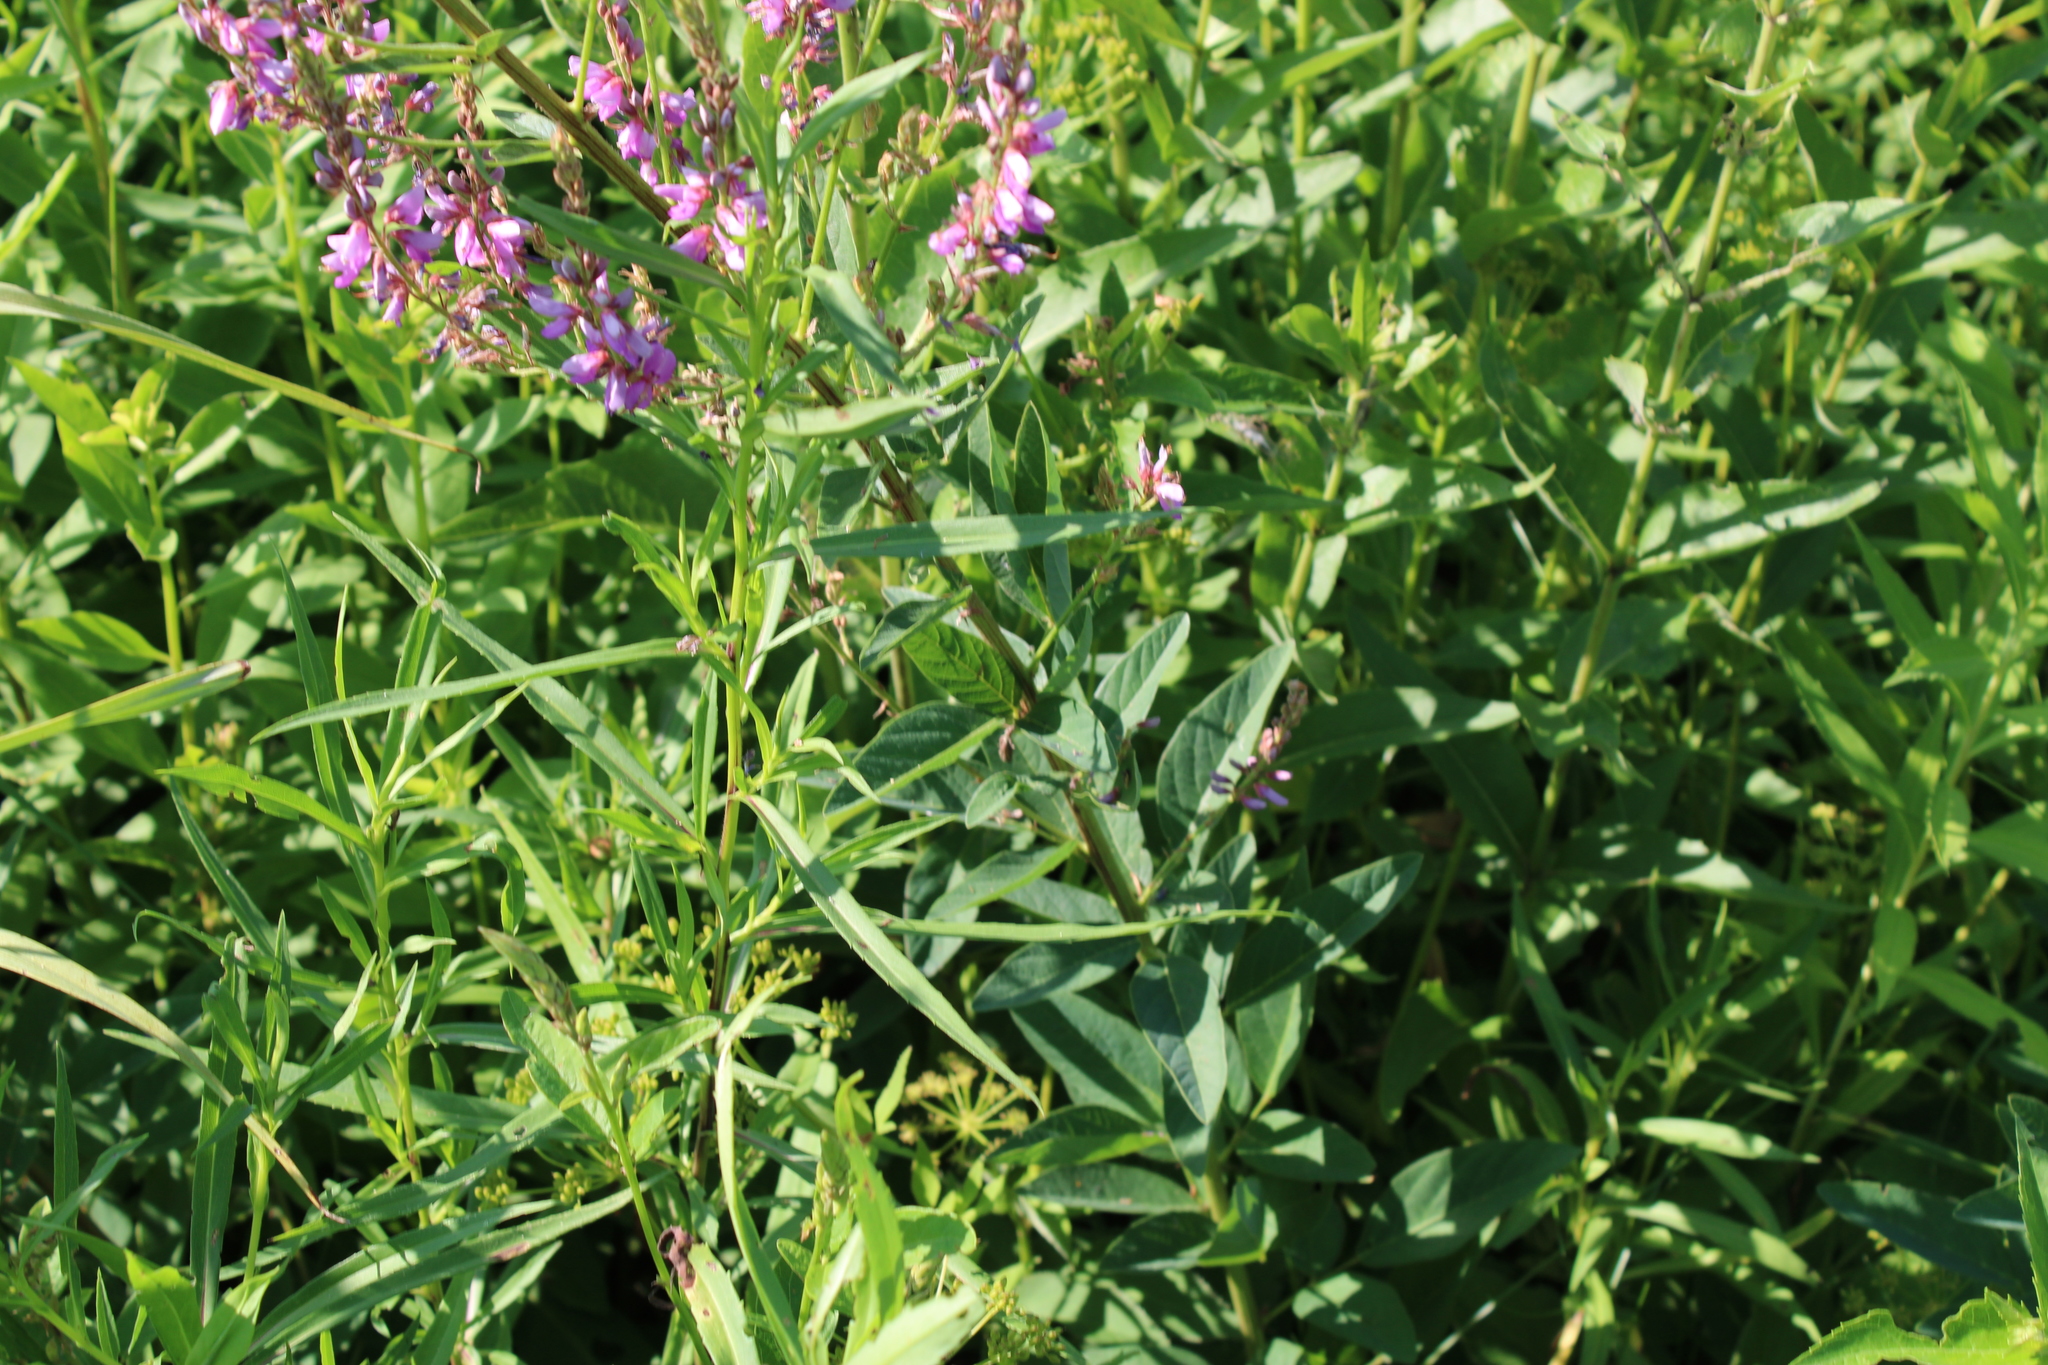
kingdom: Plantae
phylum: Tracheophyta
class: Magnoliopsida
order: Fabales
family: Fabaceae
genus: Desmodium
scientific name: Desmodium canadense
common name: Canada tick-trefoil
